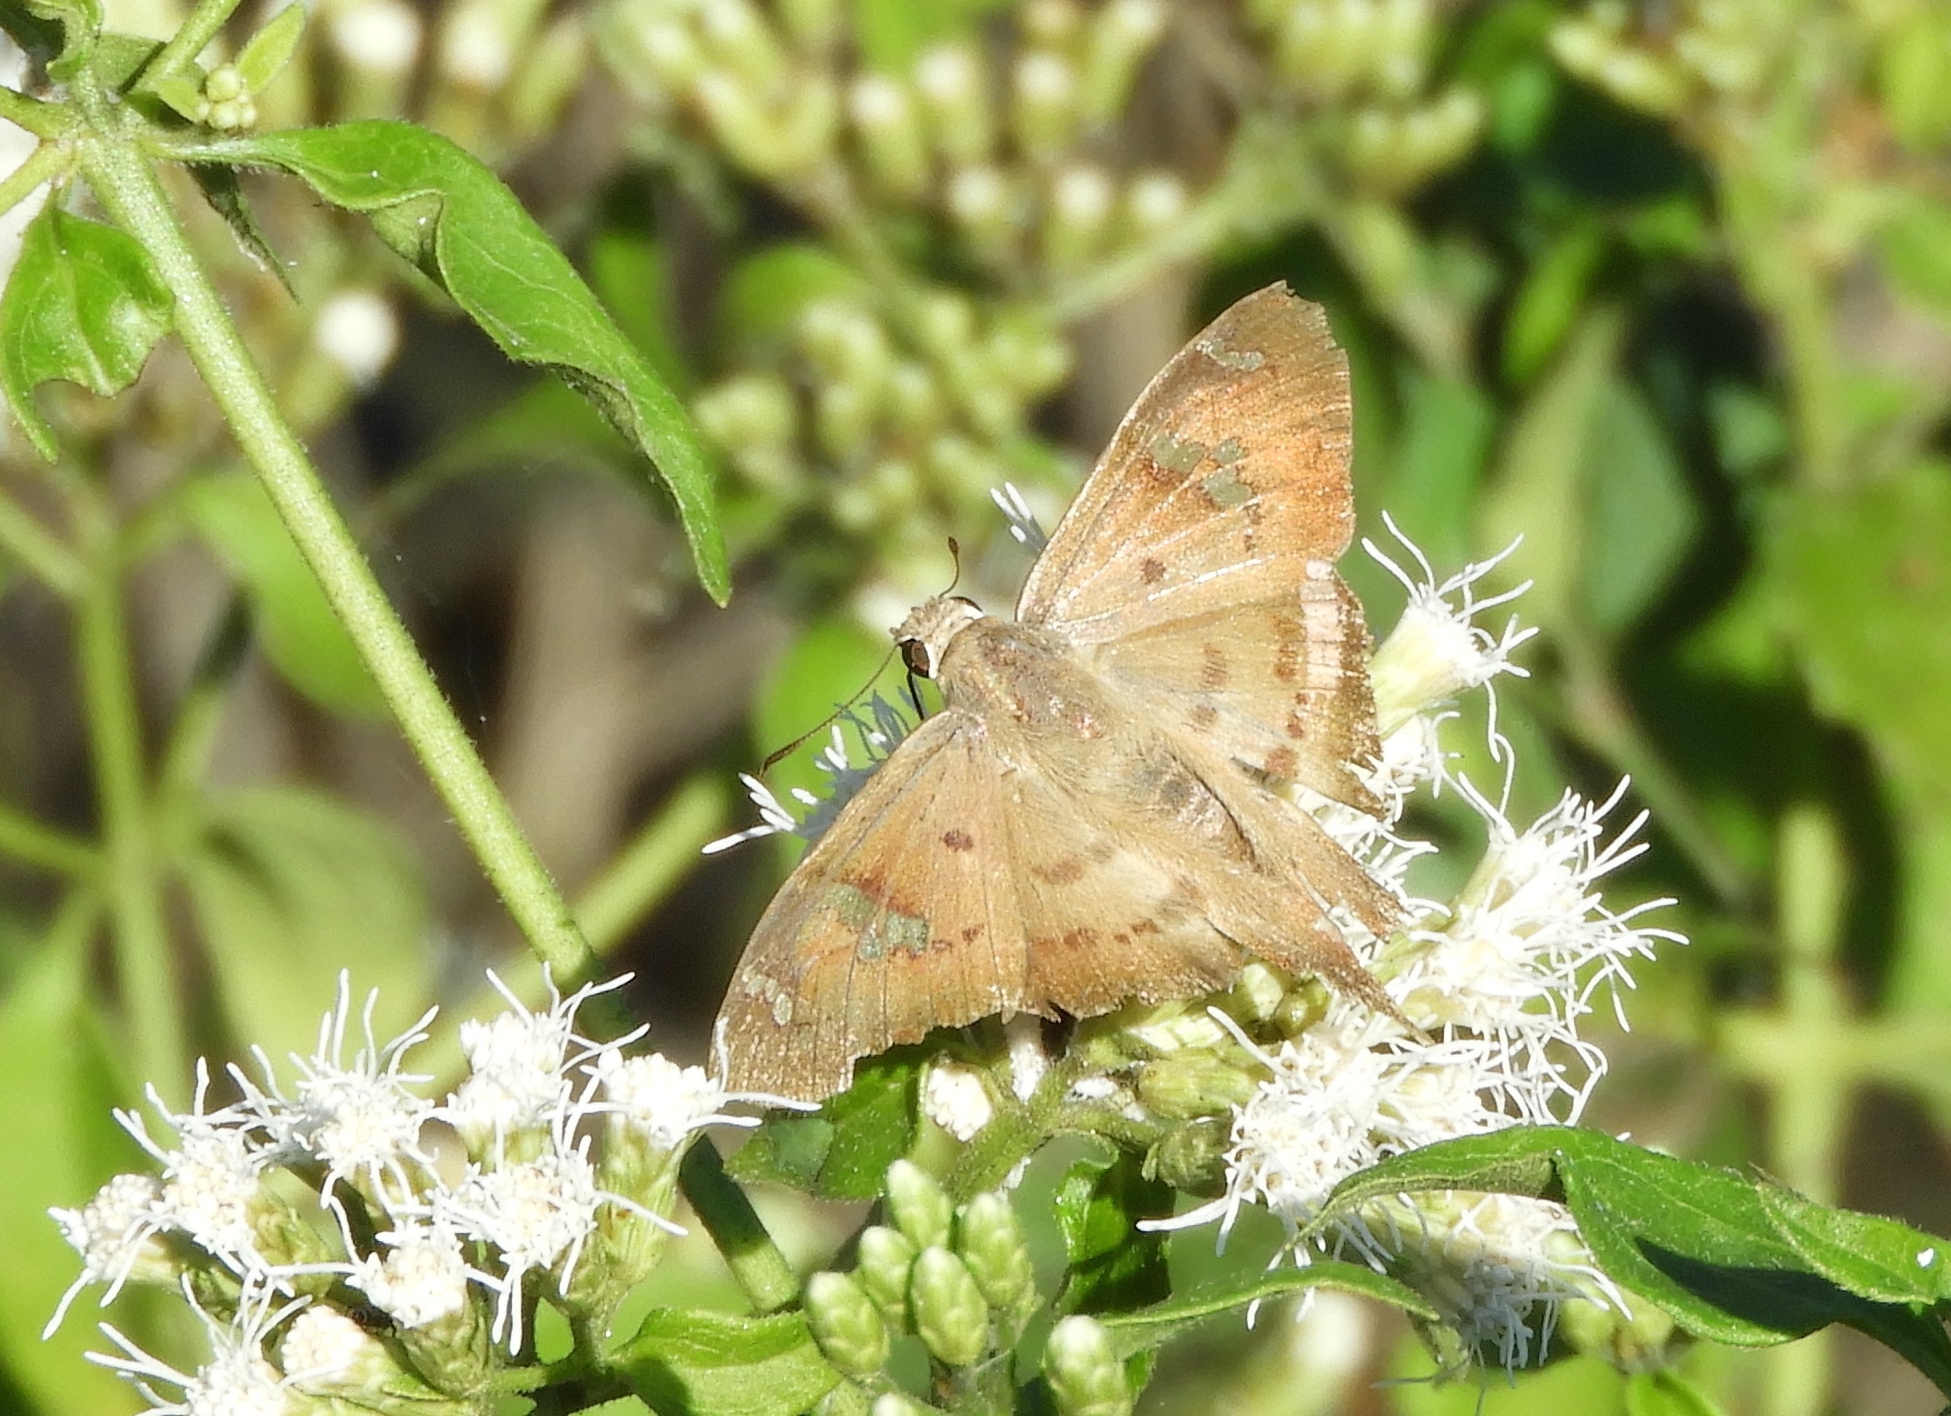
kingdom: Animalia
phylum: Arthropoda
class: Insecta
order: Lepidoptera
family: Hesperiidae
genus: Ectomis
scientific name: Ectomis
